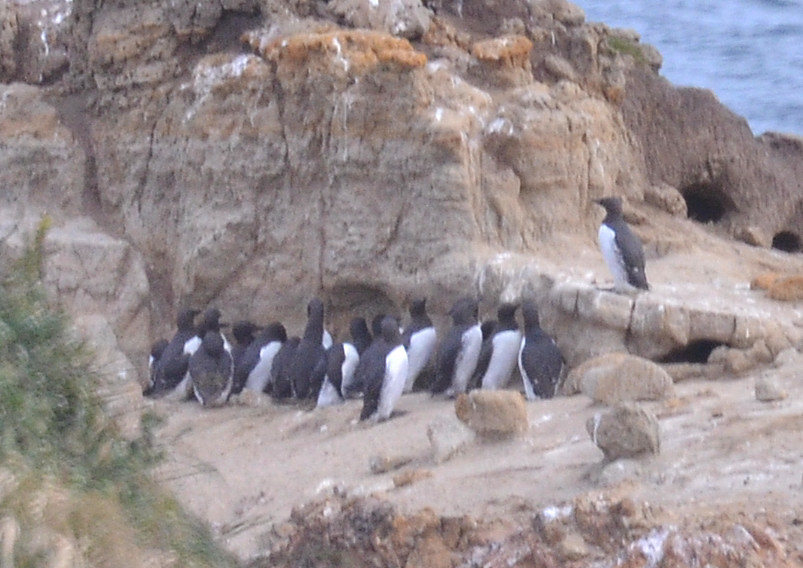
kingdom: Animalia
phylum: Chordata
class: Aves
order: Charadriiformes
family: Alcidae
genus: Uria
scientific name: Uria aalge
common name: Common murre
